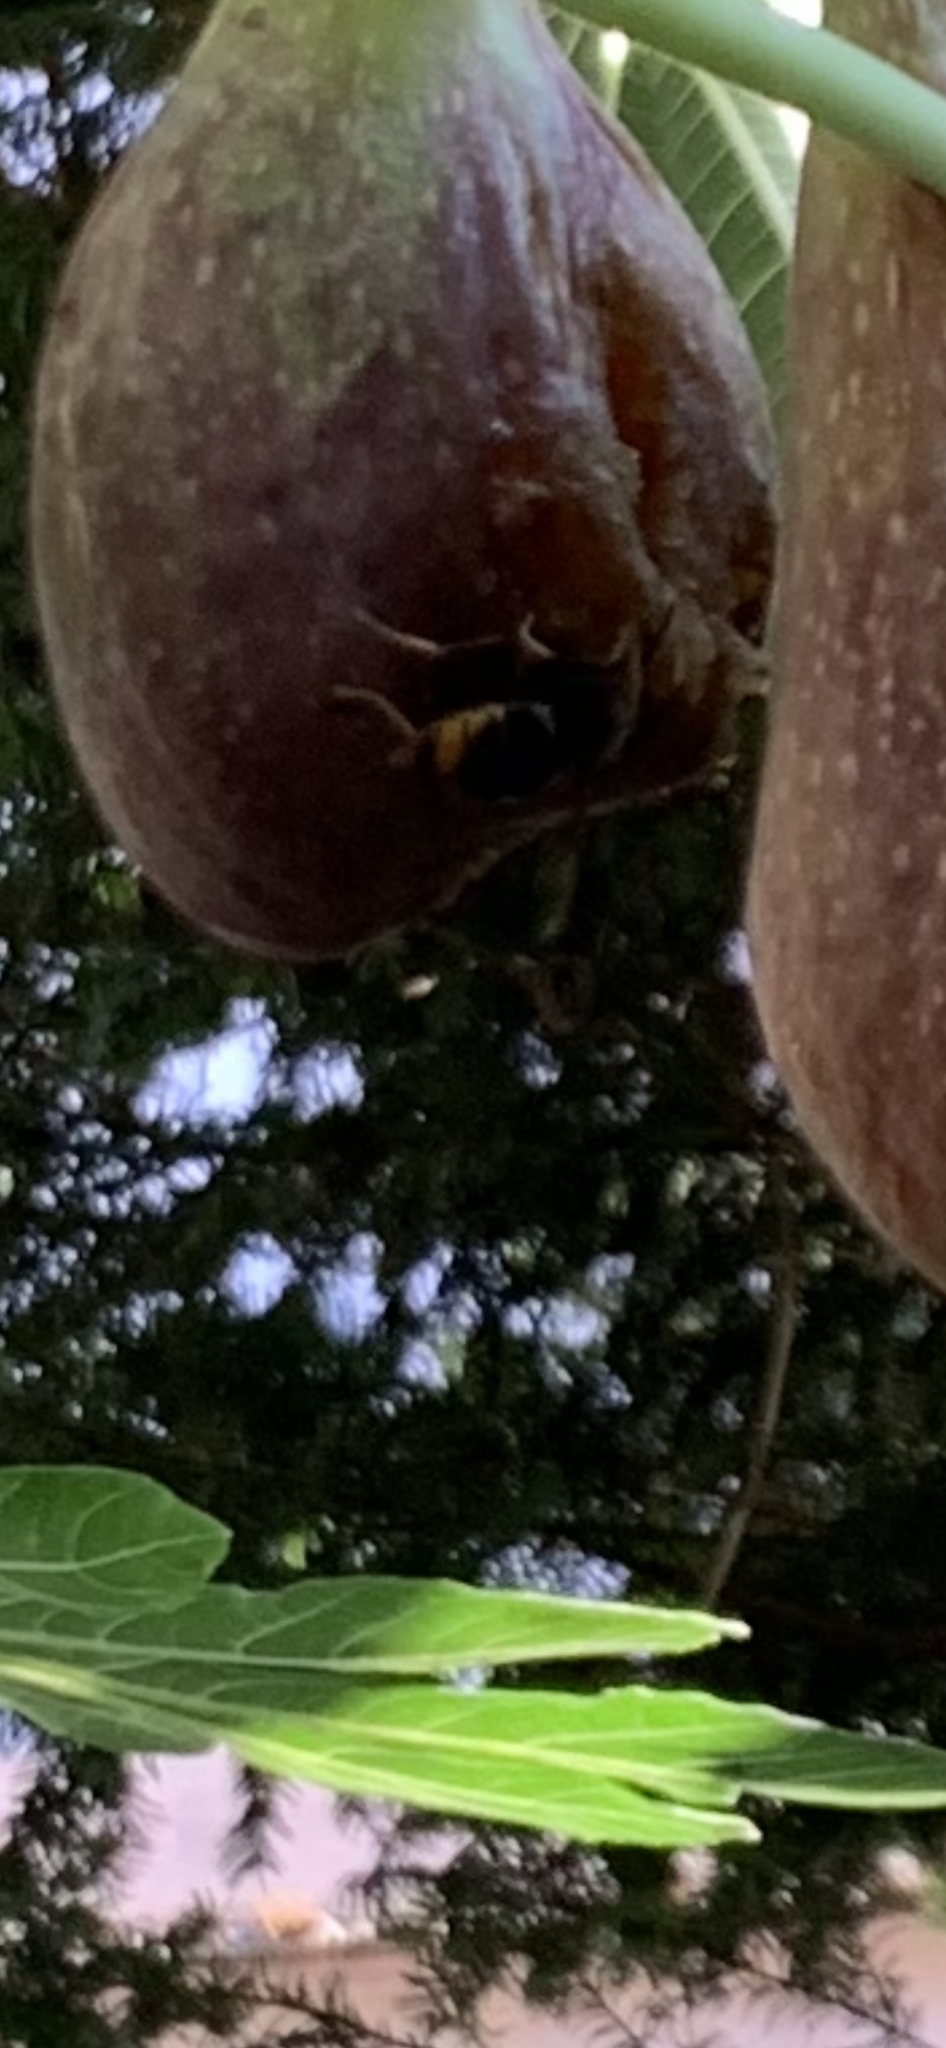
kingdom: Animalia
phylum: Arthropoda
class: Insecta
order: Hymenoptera
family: Vespidae
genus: Vespa
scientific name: Vespa velutina
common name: Asian hornet
